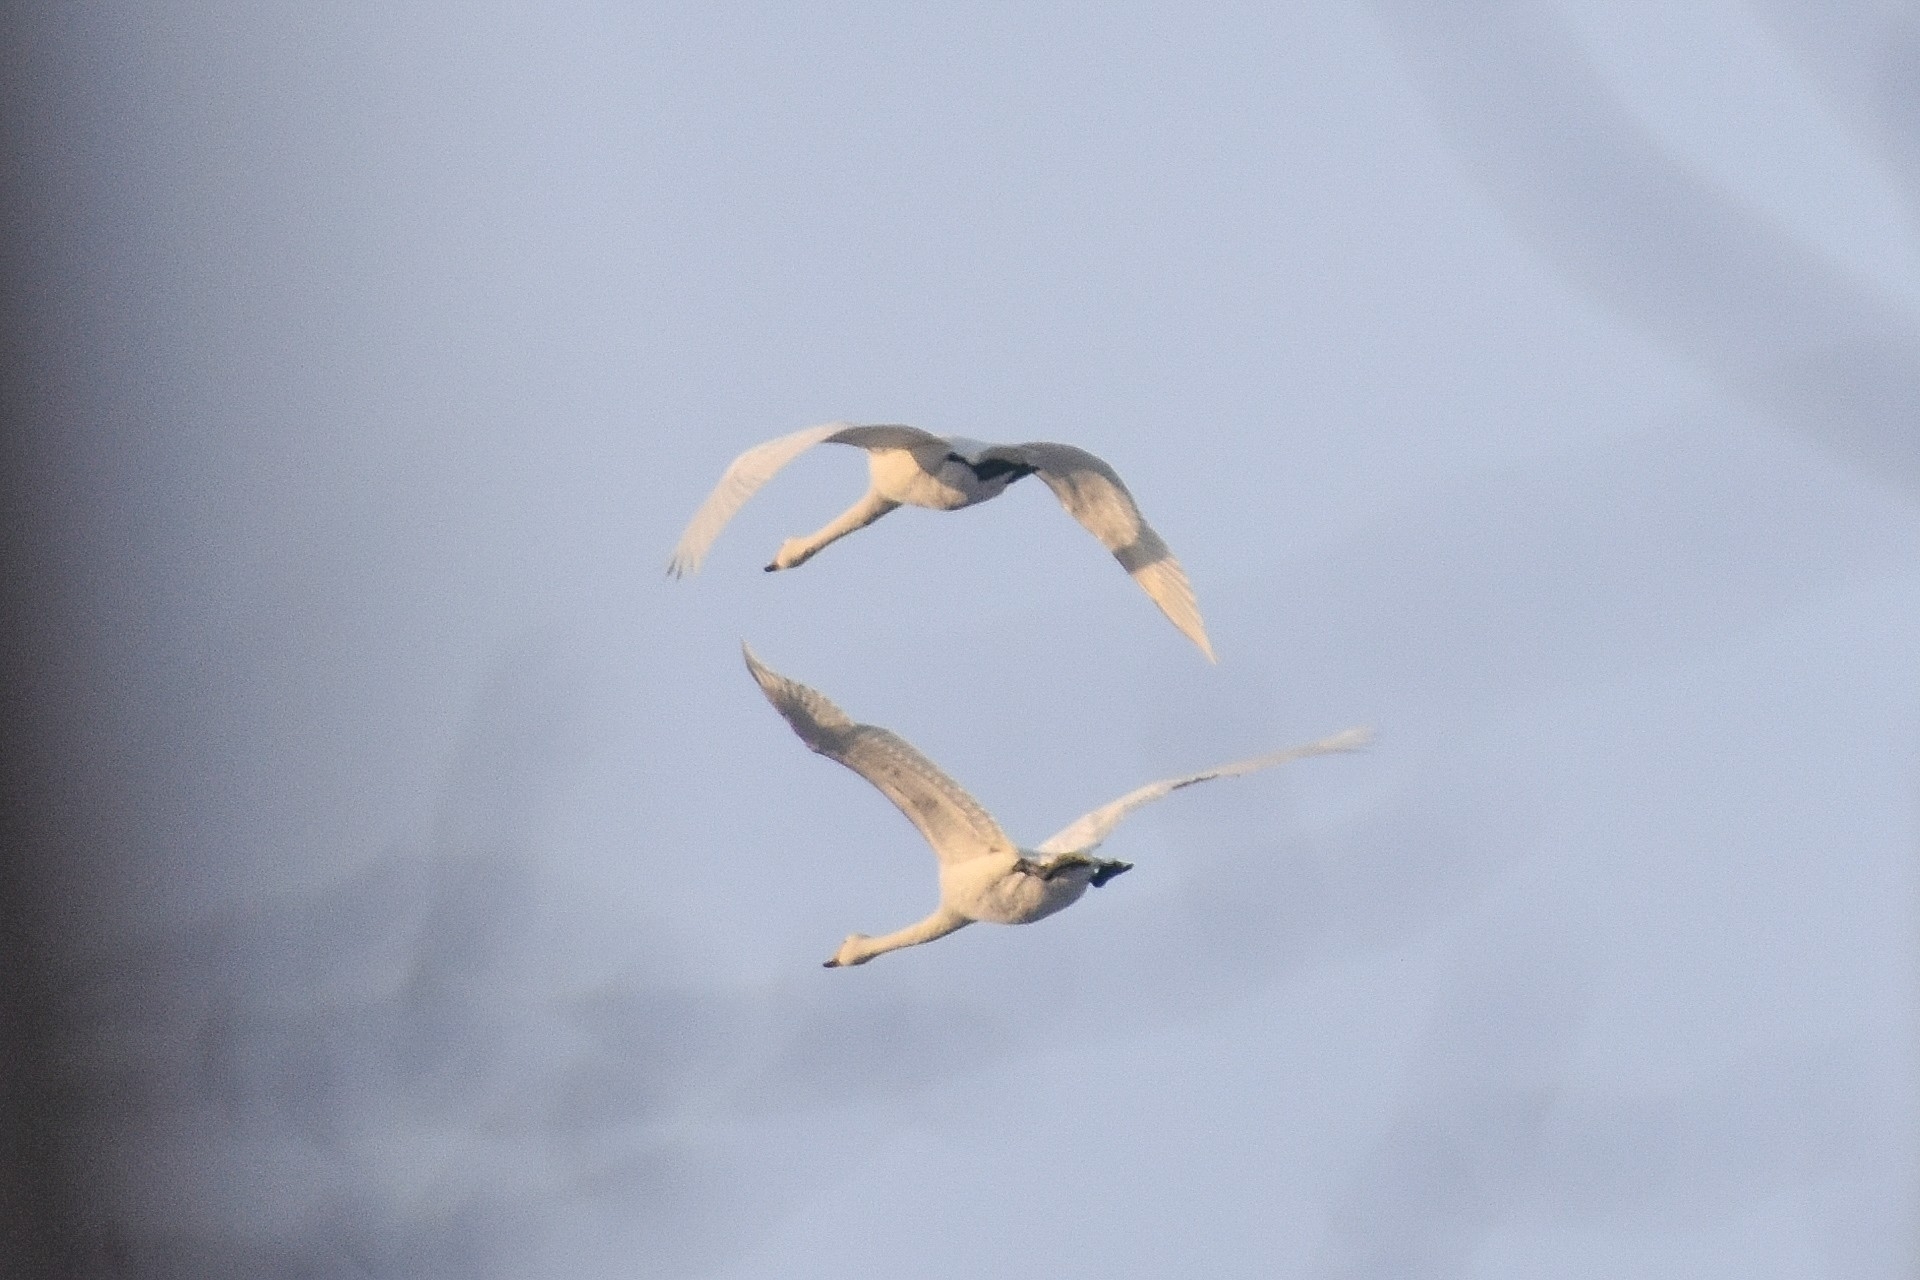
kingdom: Animalia
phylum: Chordata
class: Aves
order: Anseriformes
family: Anatidae
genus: Cygnus
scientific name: Cygnus cygnus
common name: Whooper swan
